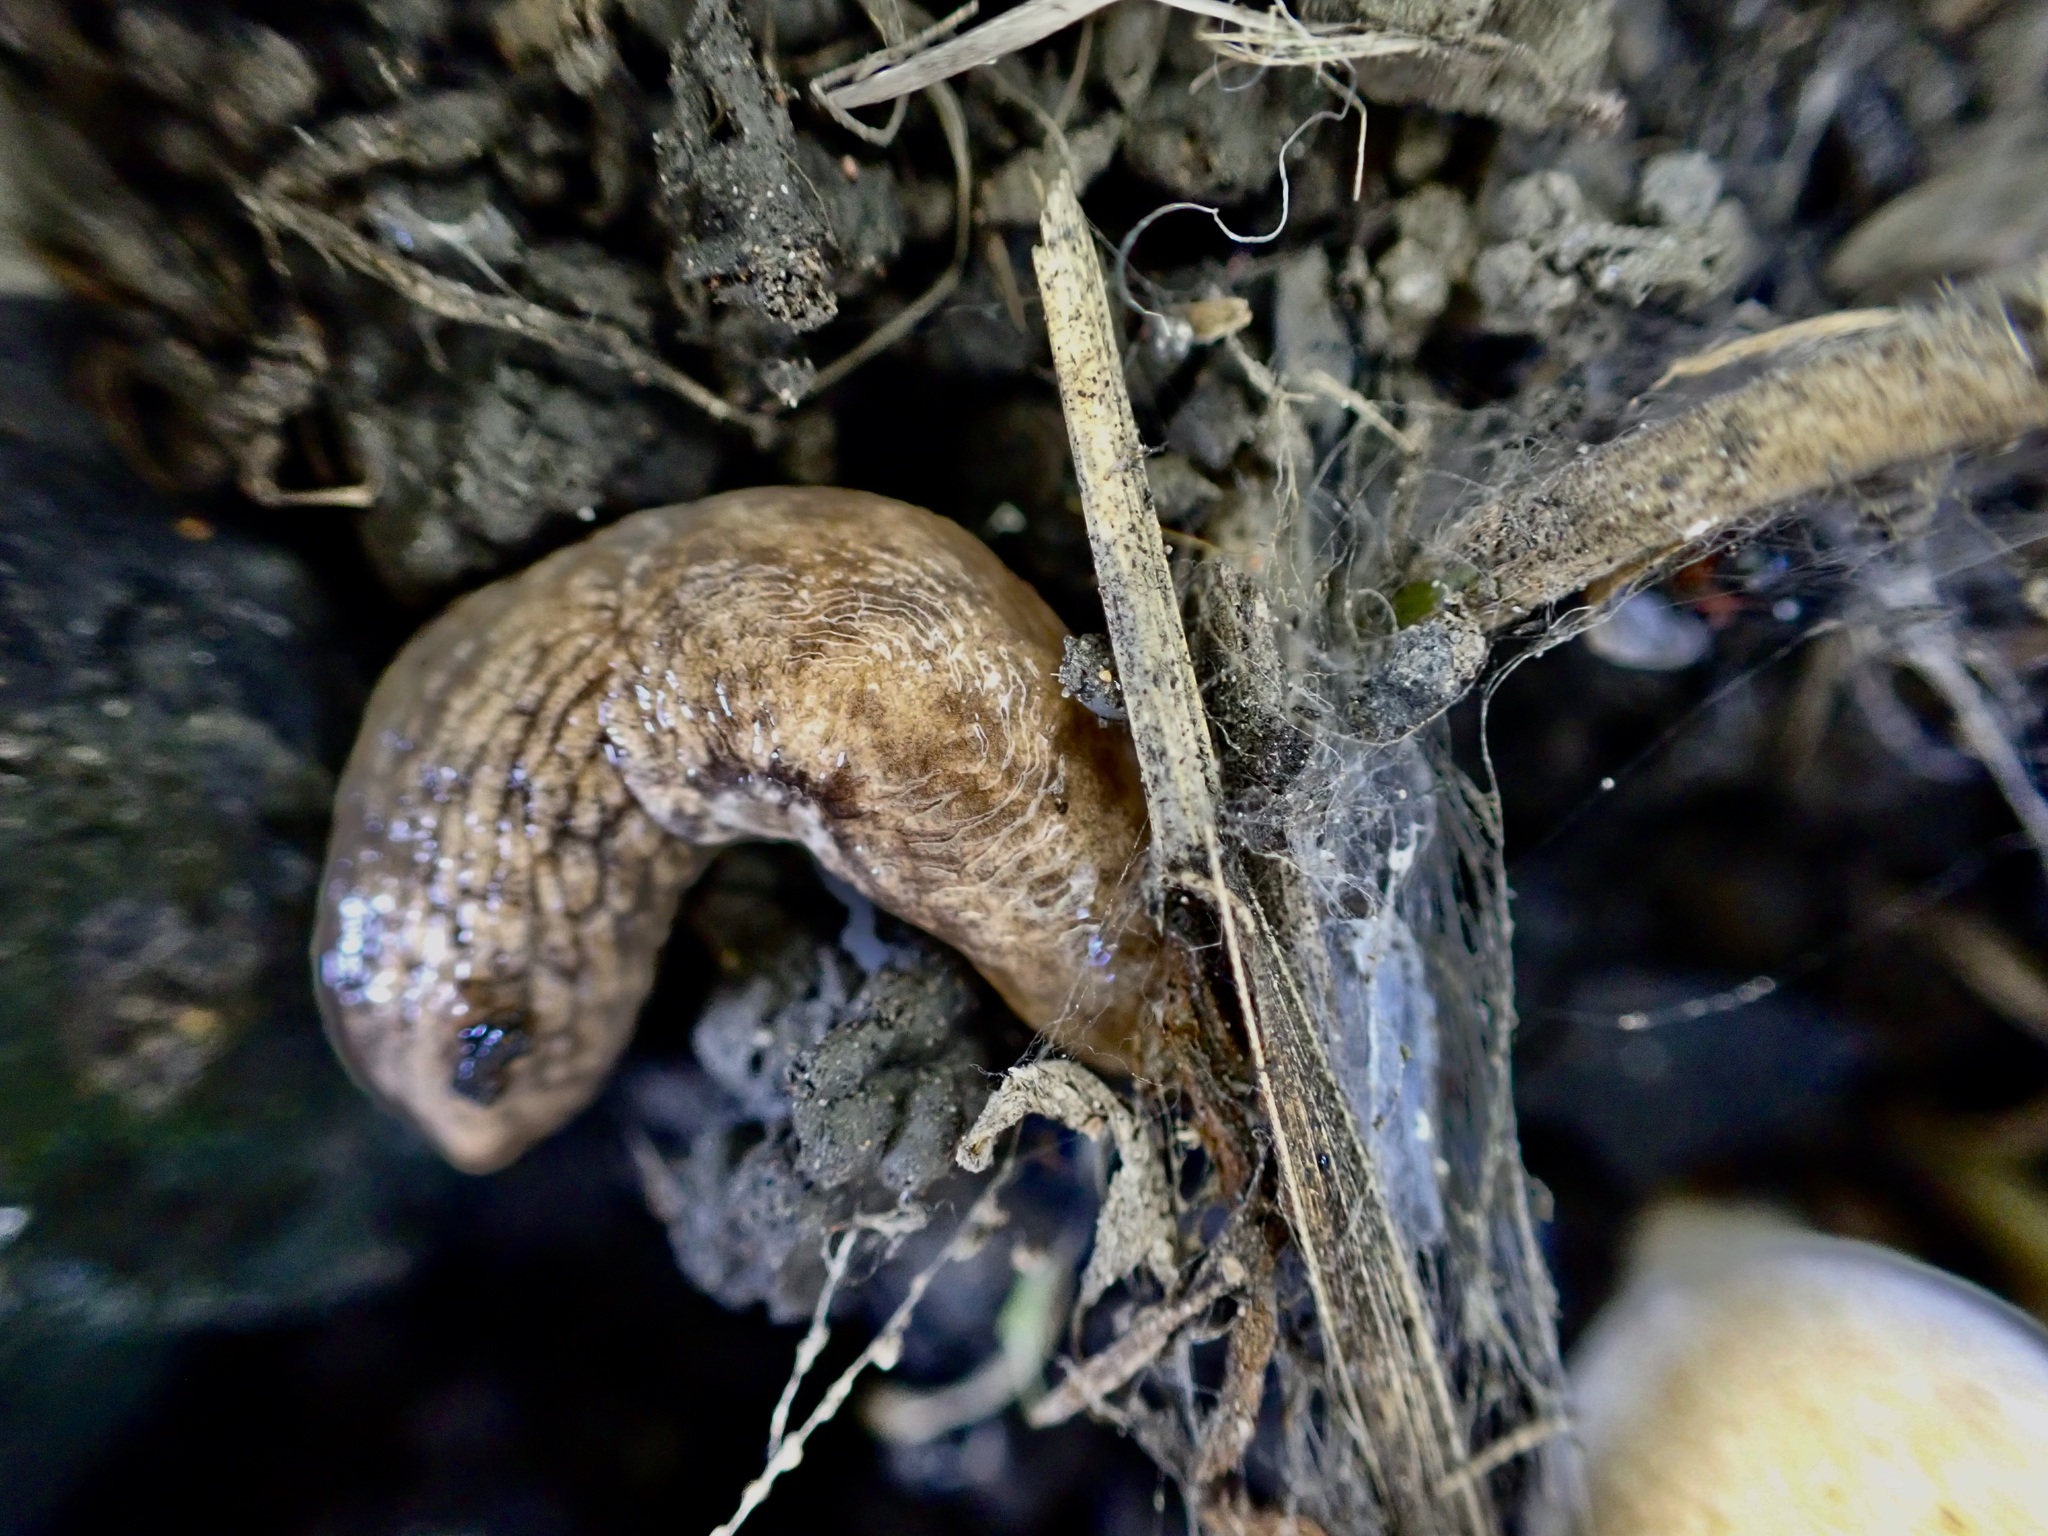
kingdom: Animalia
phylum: Mollusca
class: Gastropoda
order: Stylommatophora
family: Agriolimacidae
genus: Deroceras
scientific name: Deroceras reticulatum
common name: Gray field slug
